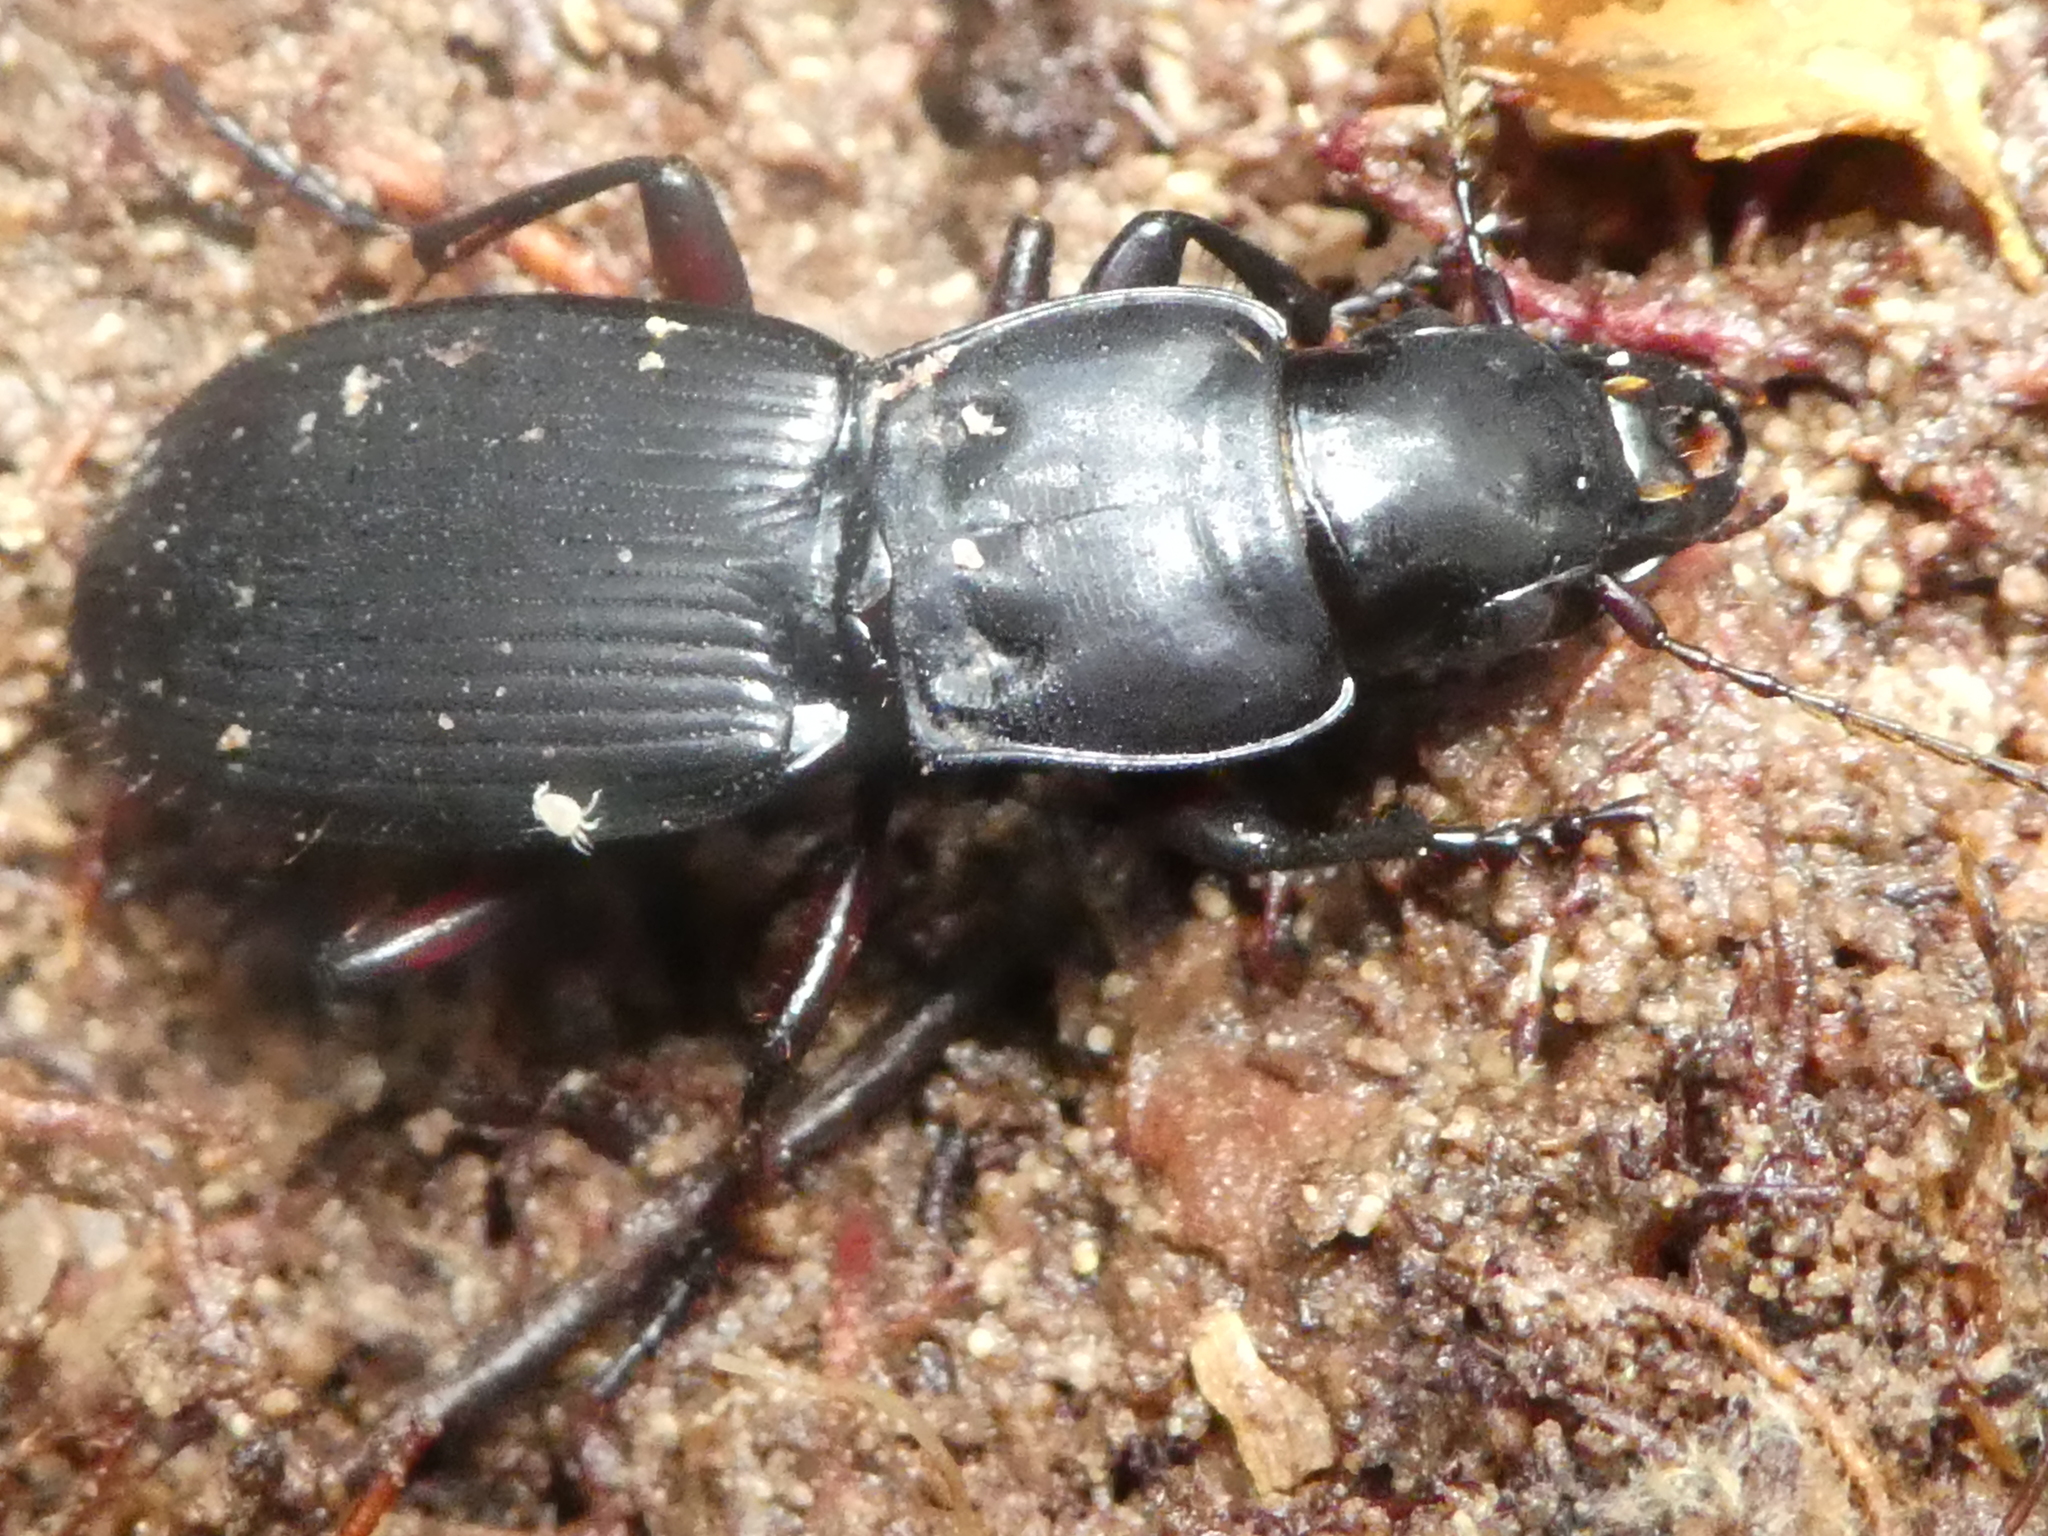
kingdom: Animalia
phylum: Arthropoda
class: Insecta
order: Coleoptera
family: Carabidae
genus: Plocamostethus
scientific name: Plocamostethus planiusculus
